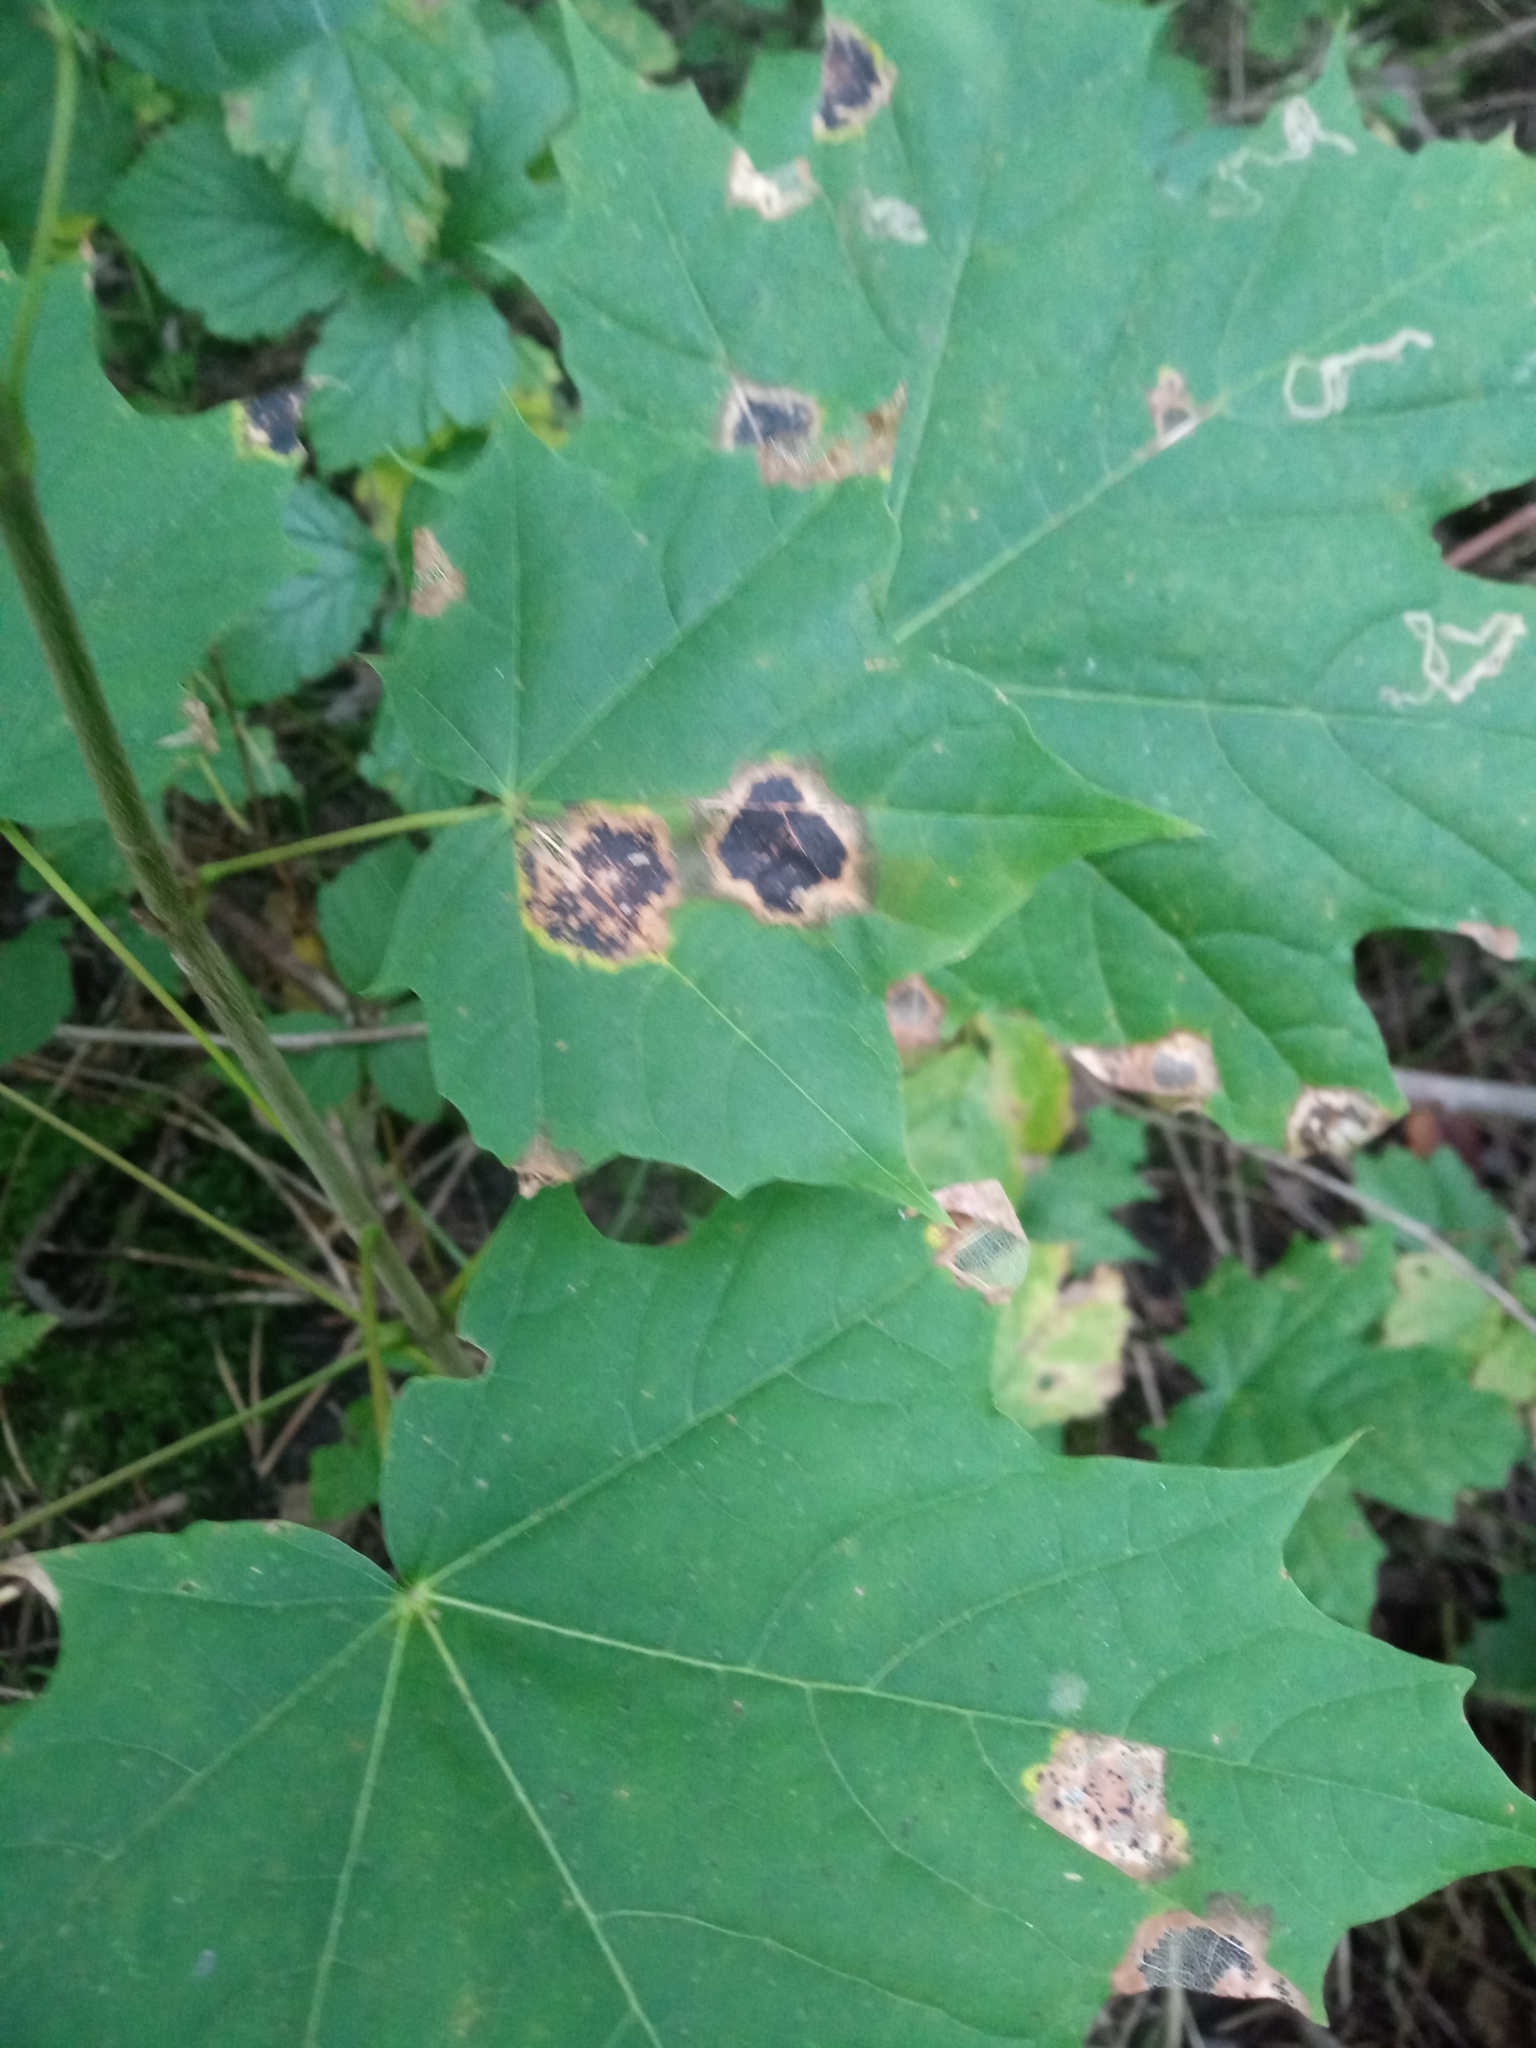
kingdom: Plantae
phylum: Tracheophyta
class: Magnoliopsida
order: Sapindales
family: Sapindaceae
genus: Acer
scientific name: Acer platanoides
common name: Norway maple
